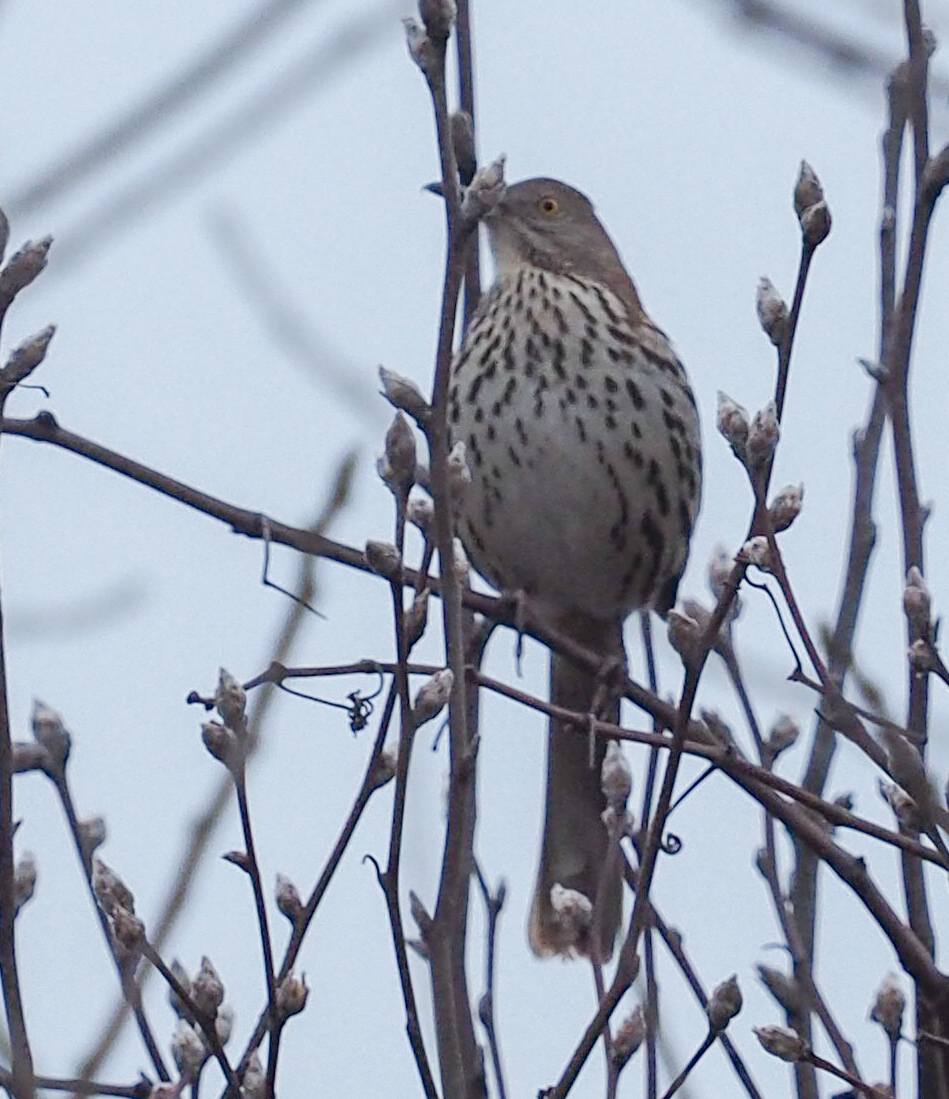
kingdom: Animalia
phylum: Chordata
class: Aves
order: Passeriformes
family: Mimidae
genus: Toxostoma
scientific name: Toxostoma rufum
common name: Brown thrasher
